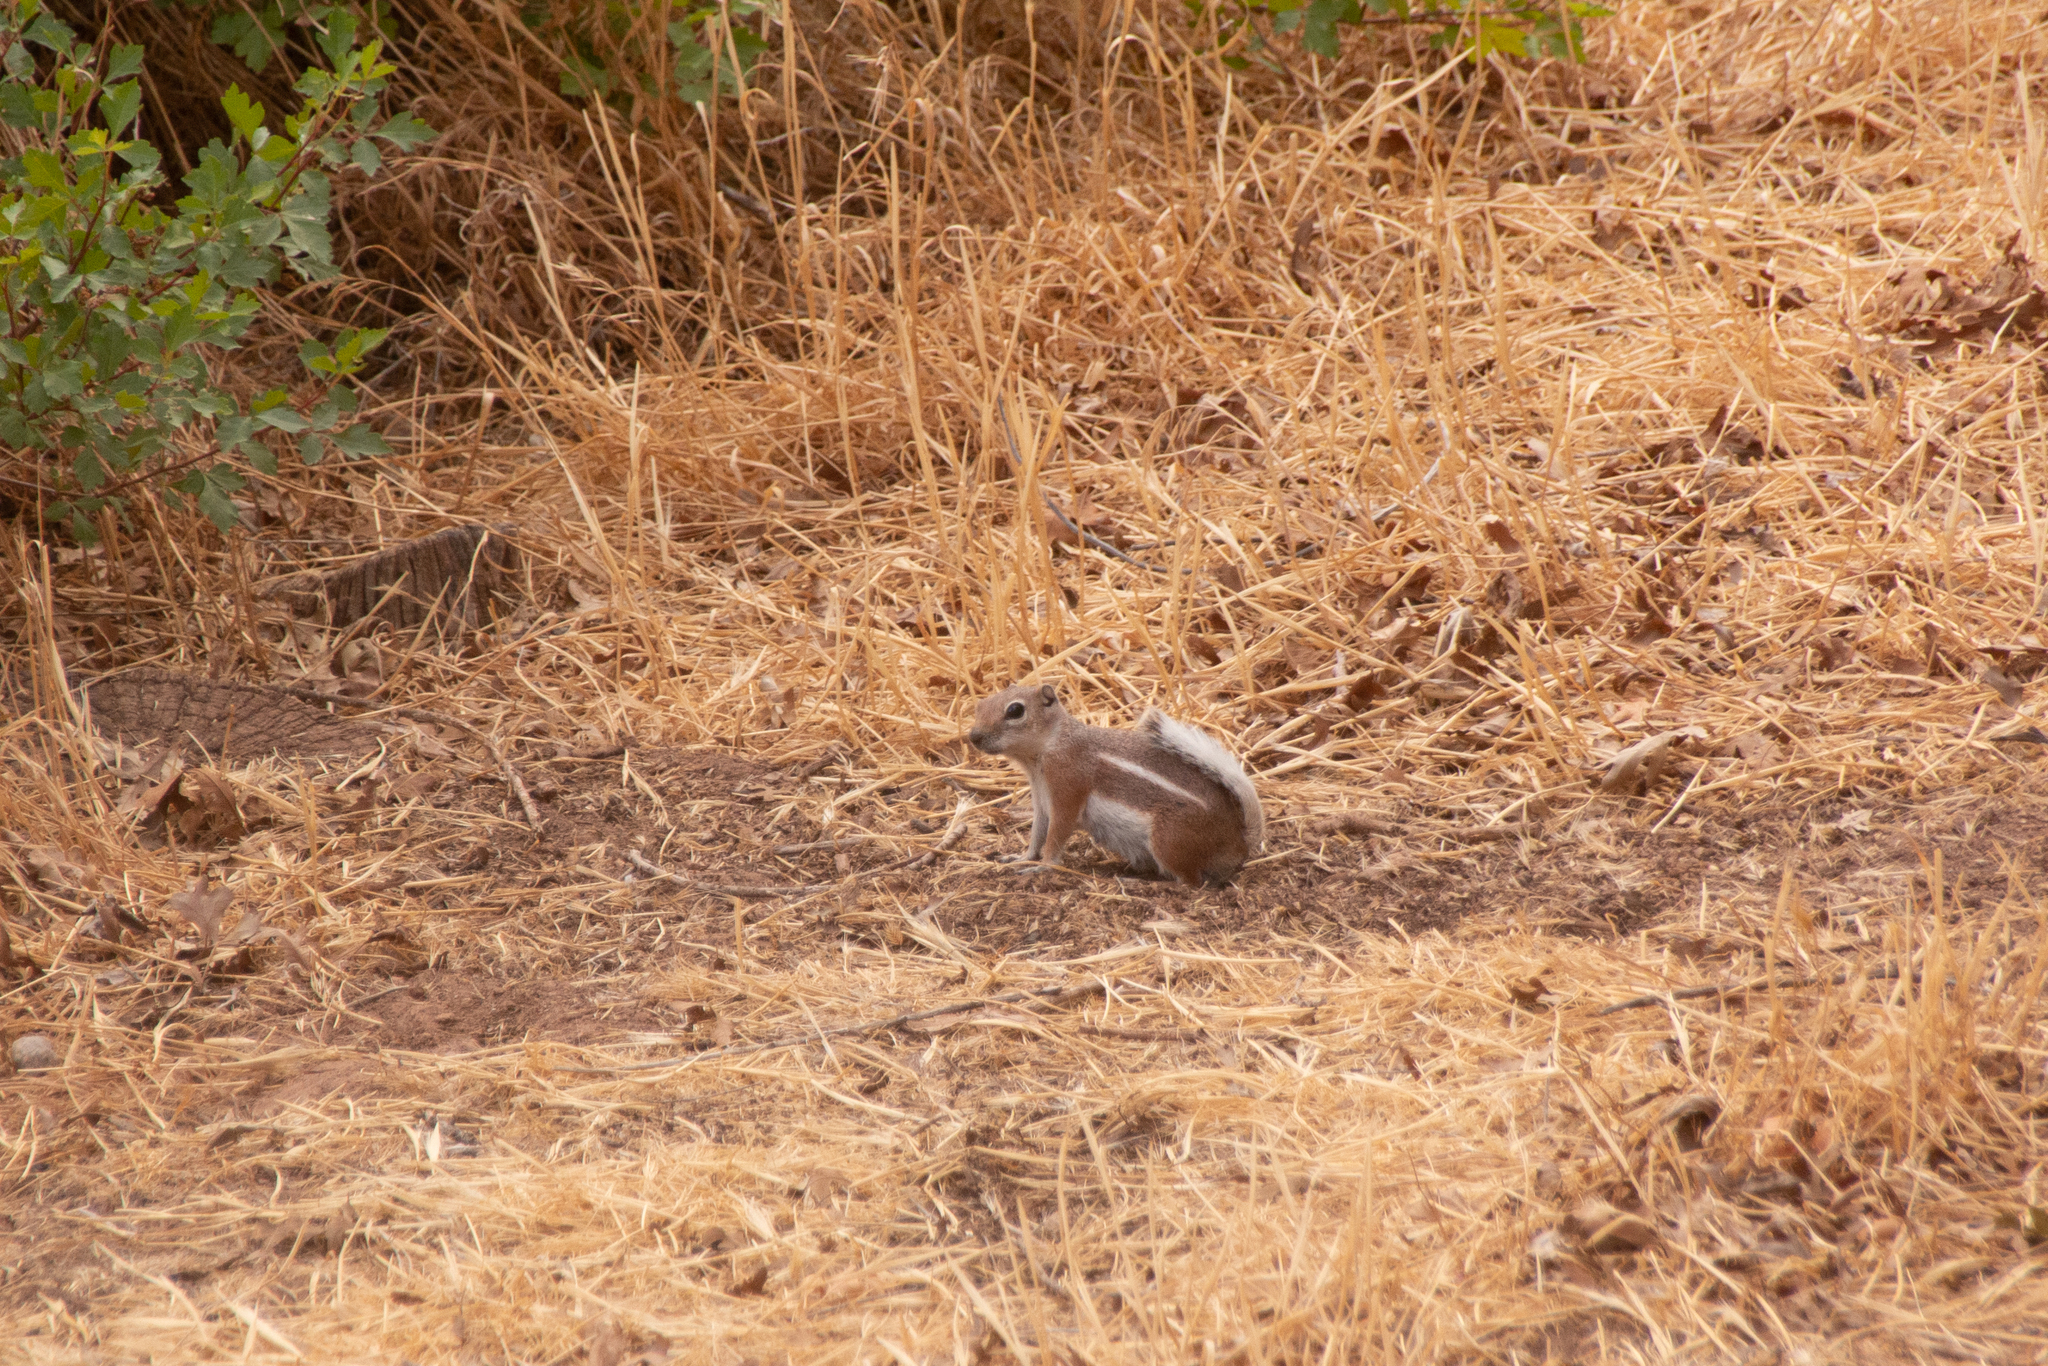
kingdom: Animalia
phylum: Chordata
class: Mammalia
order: Rodentia
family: Sciuridae
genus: Ammospermophilus
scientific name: Ammospermophilus leucurus
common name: White-tailed antelope squirrel
